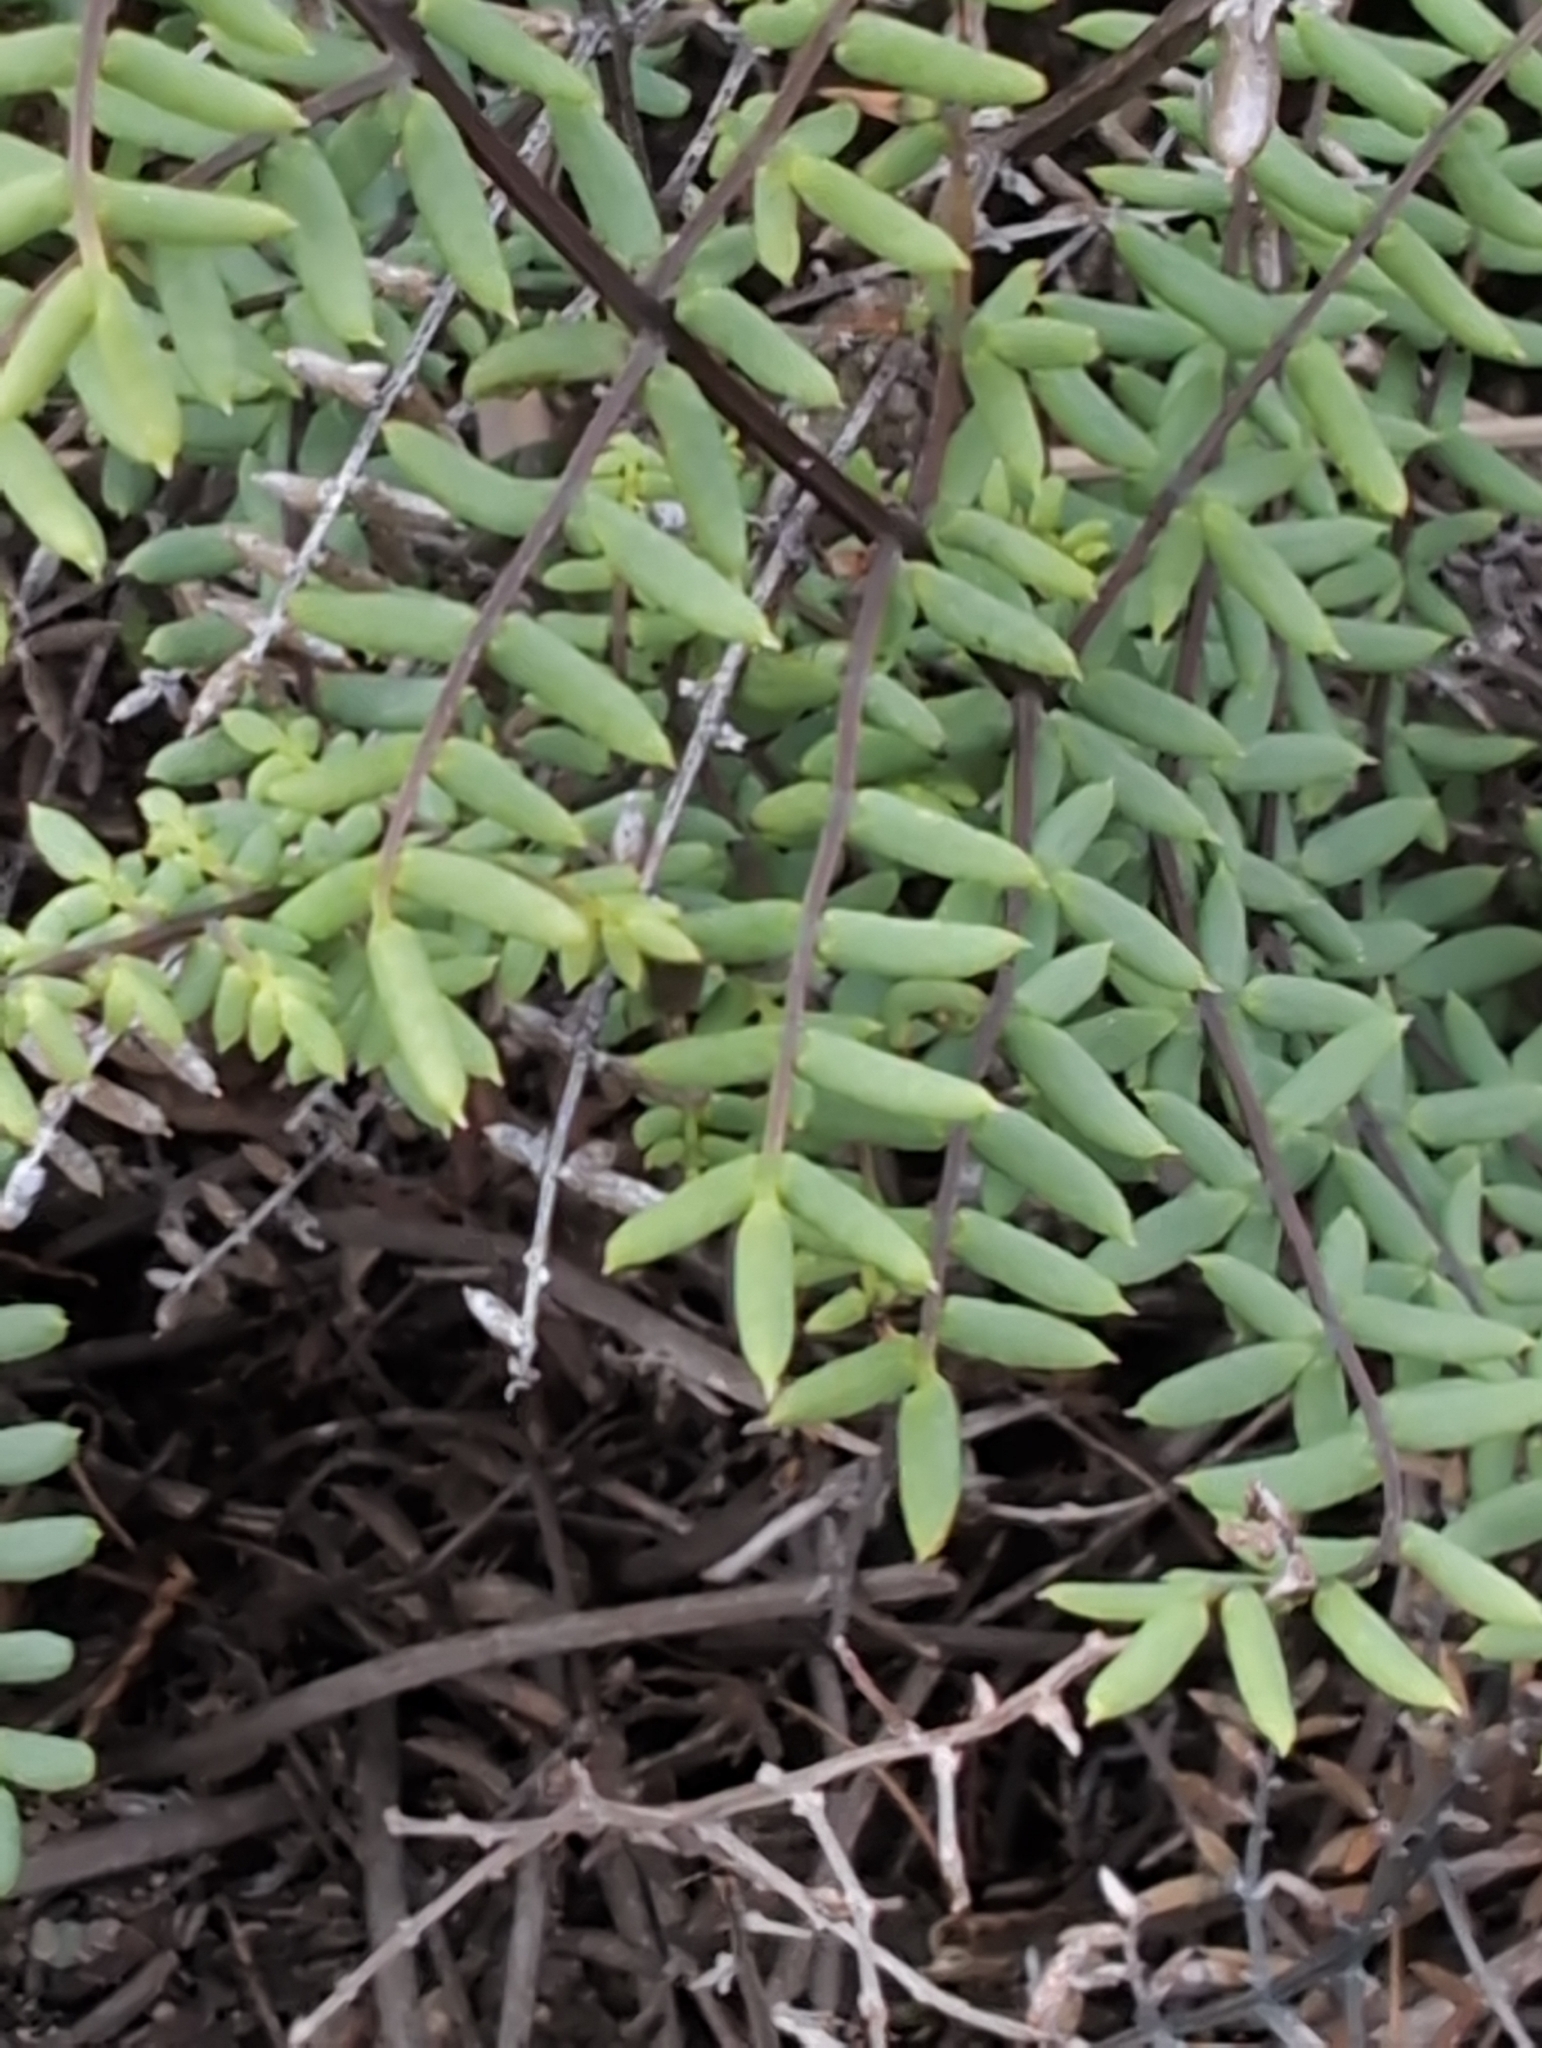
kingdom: Plantae
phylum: Tracheophyta
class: Polypodiopsida
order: Polypodiales
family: Pteridaceae
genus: Pellaea
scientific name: Pellaea mucronata
